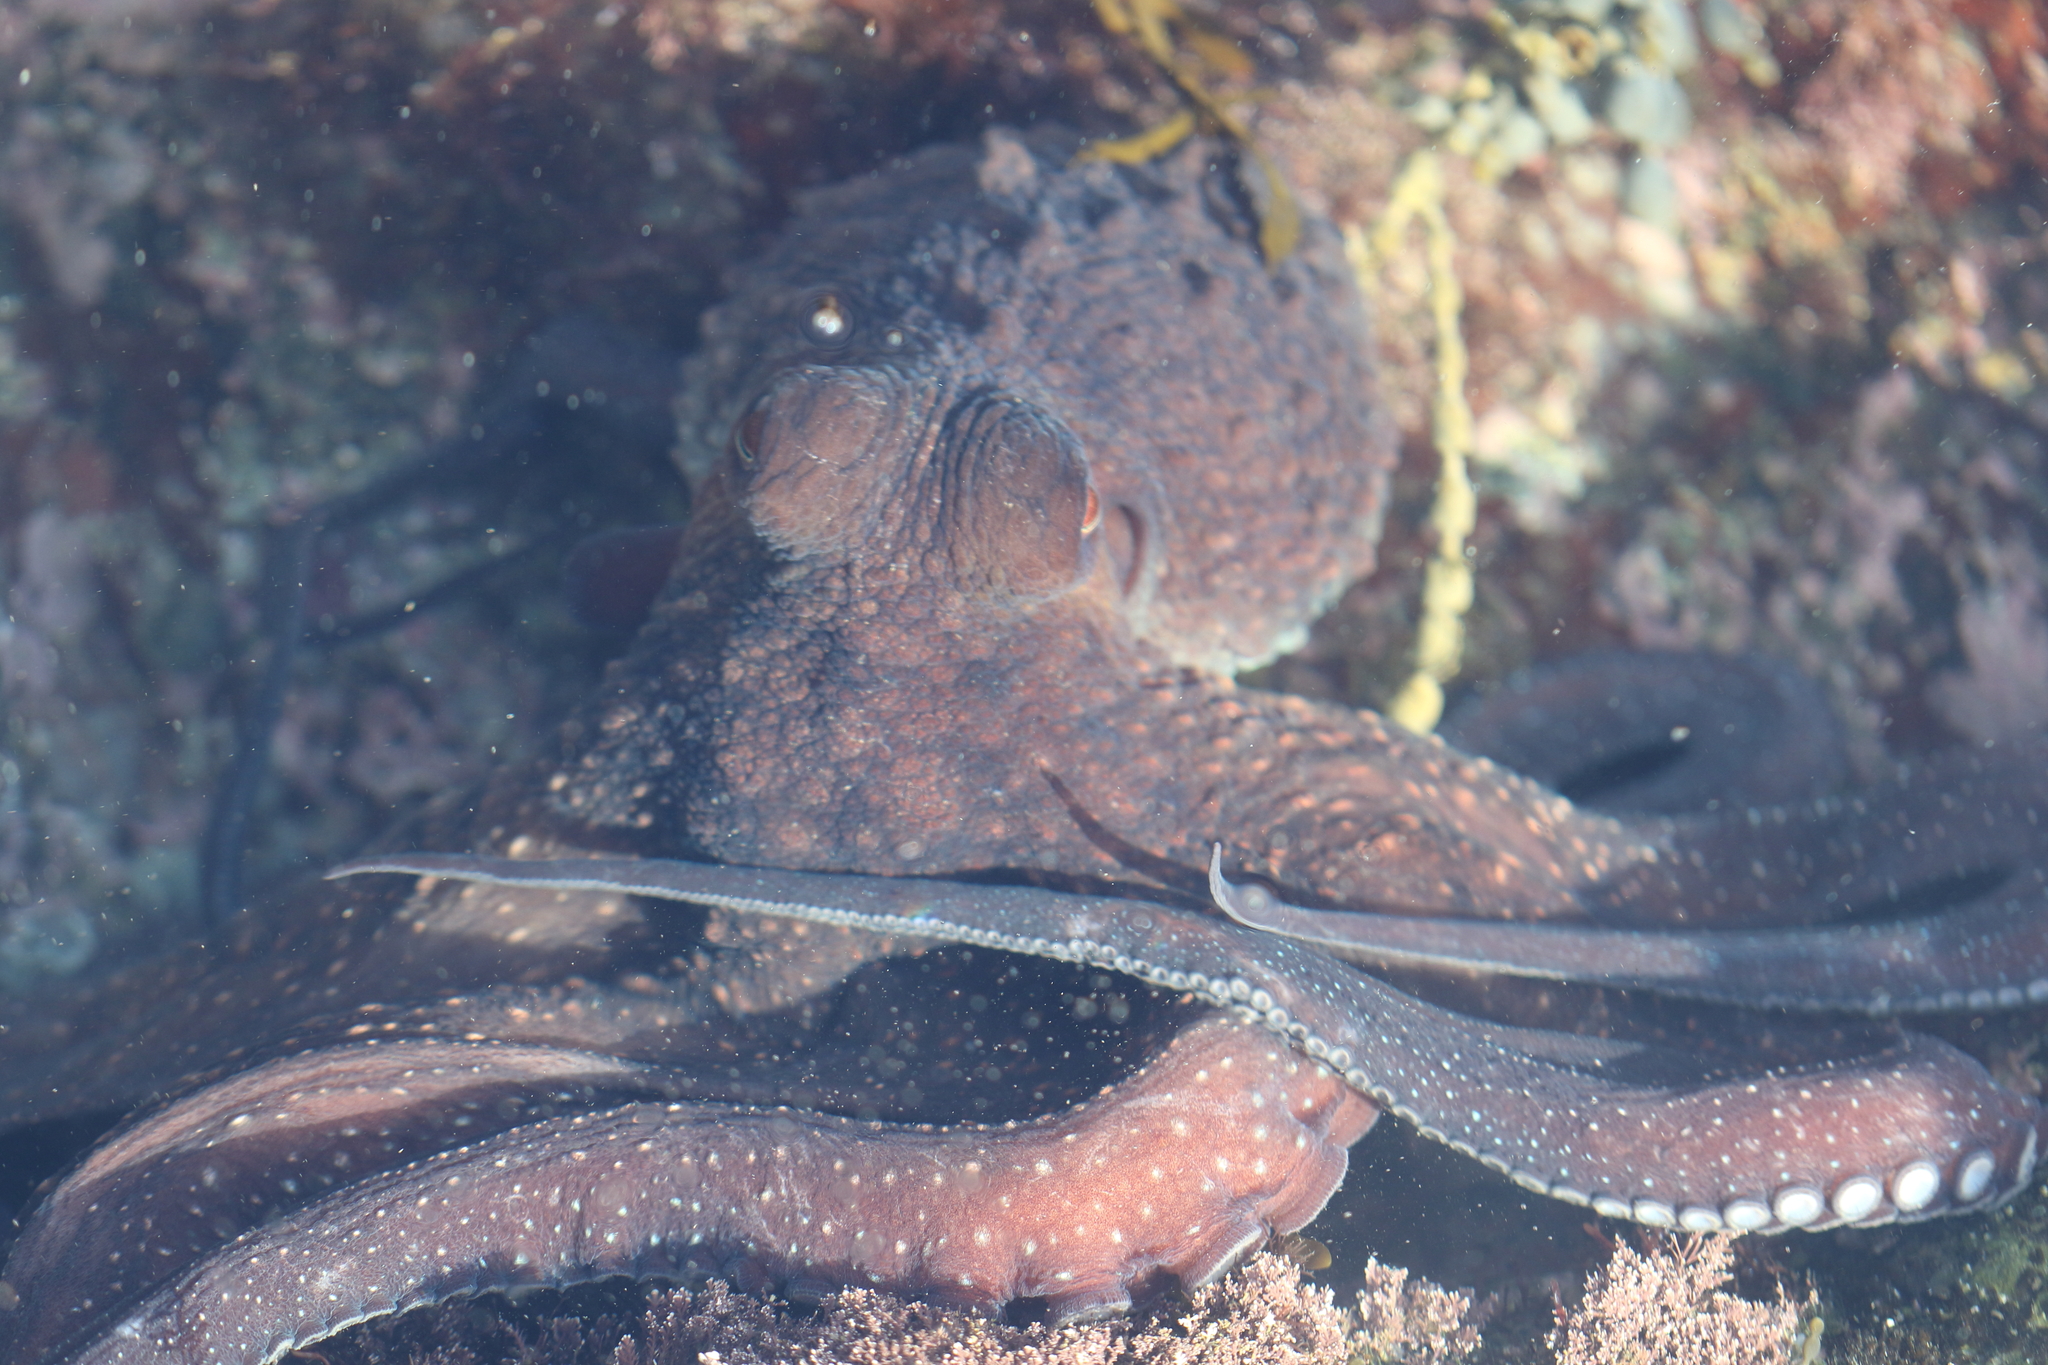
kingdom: Animalia
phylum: Mollusca
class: Cephalopoda
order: Octopoda
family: Octopodidae
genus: Macroctopus
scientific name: Macroctopus maorum
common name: Maori octopus
